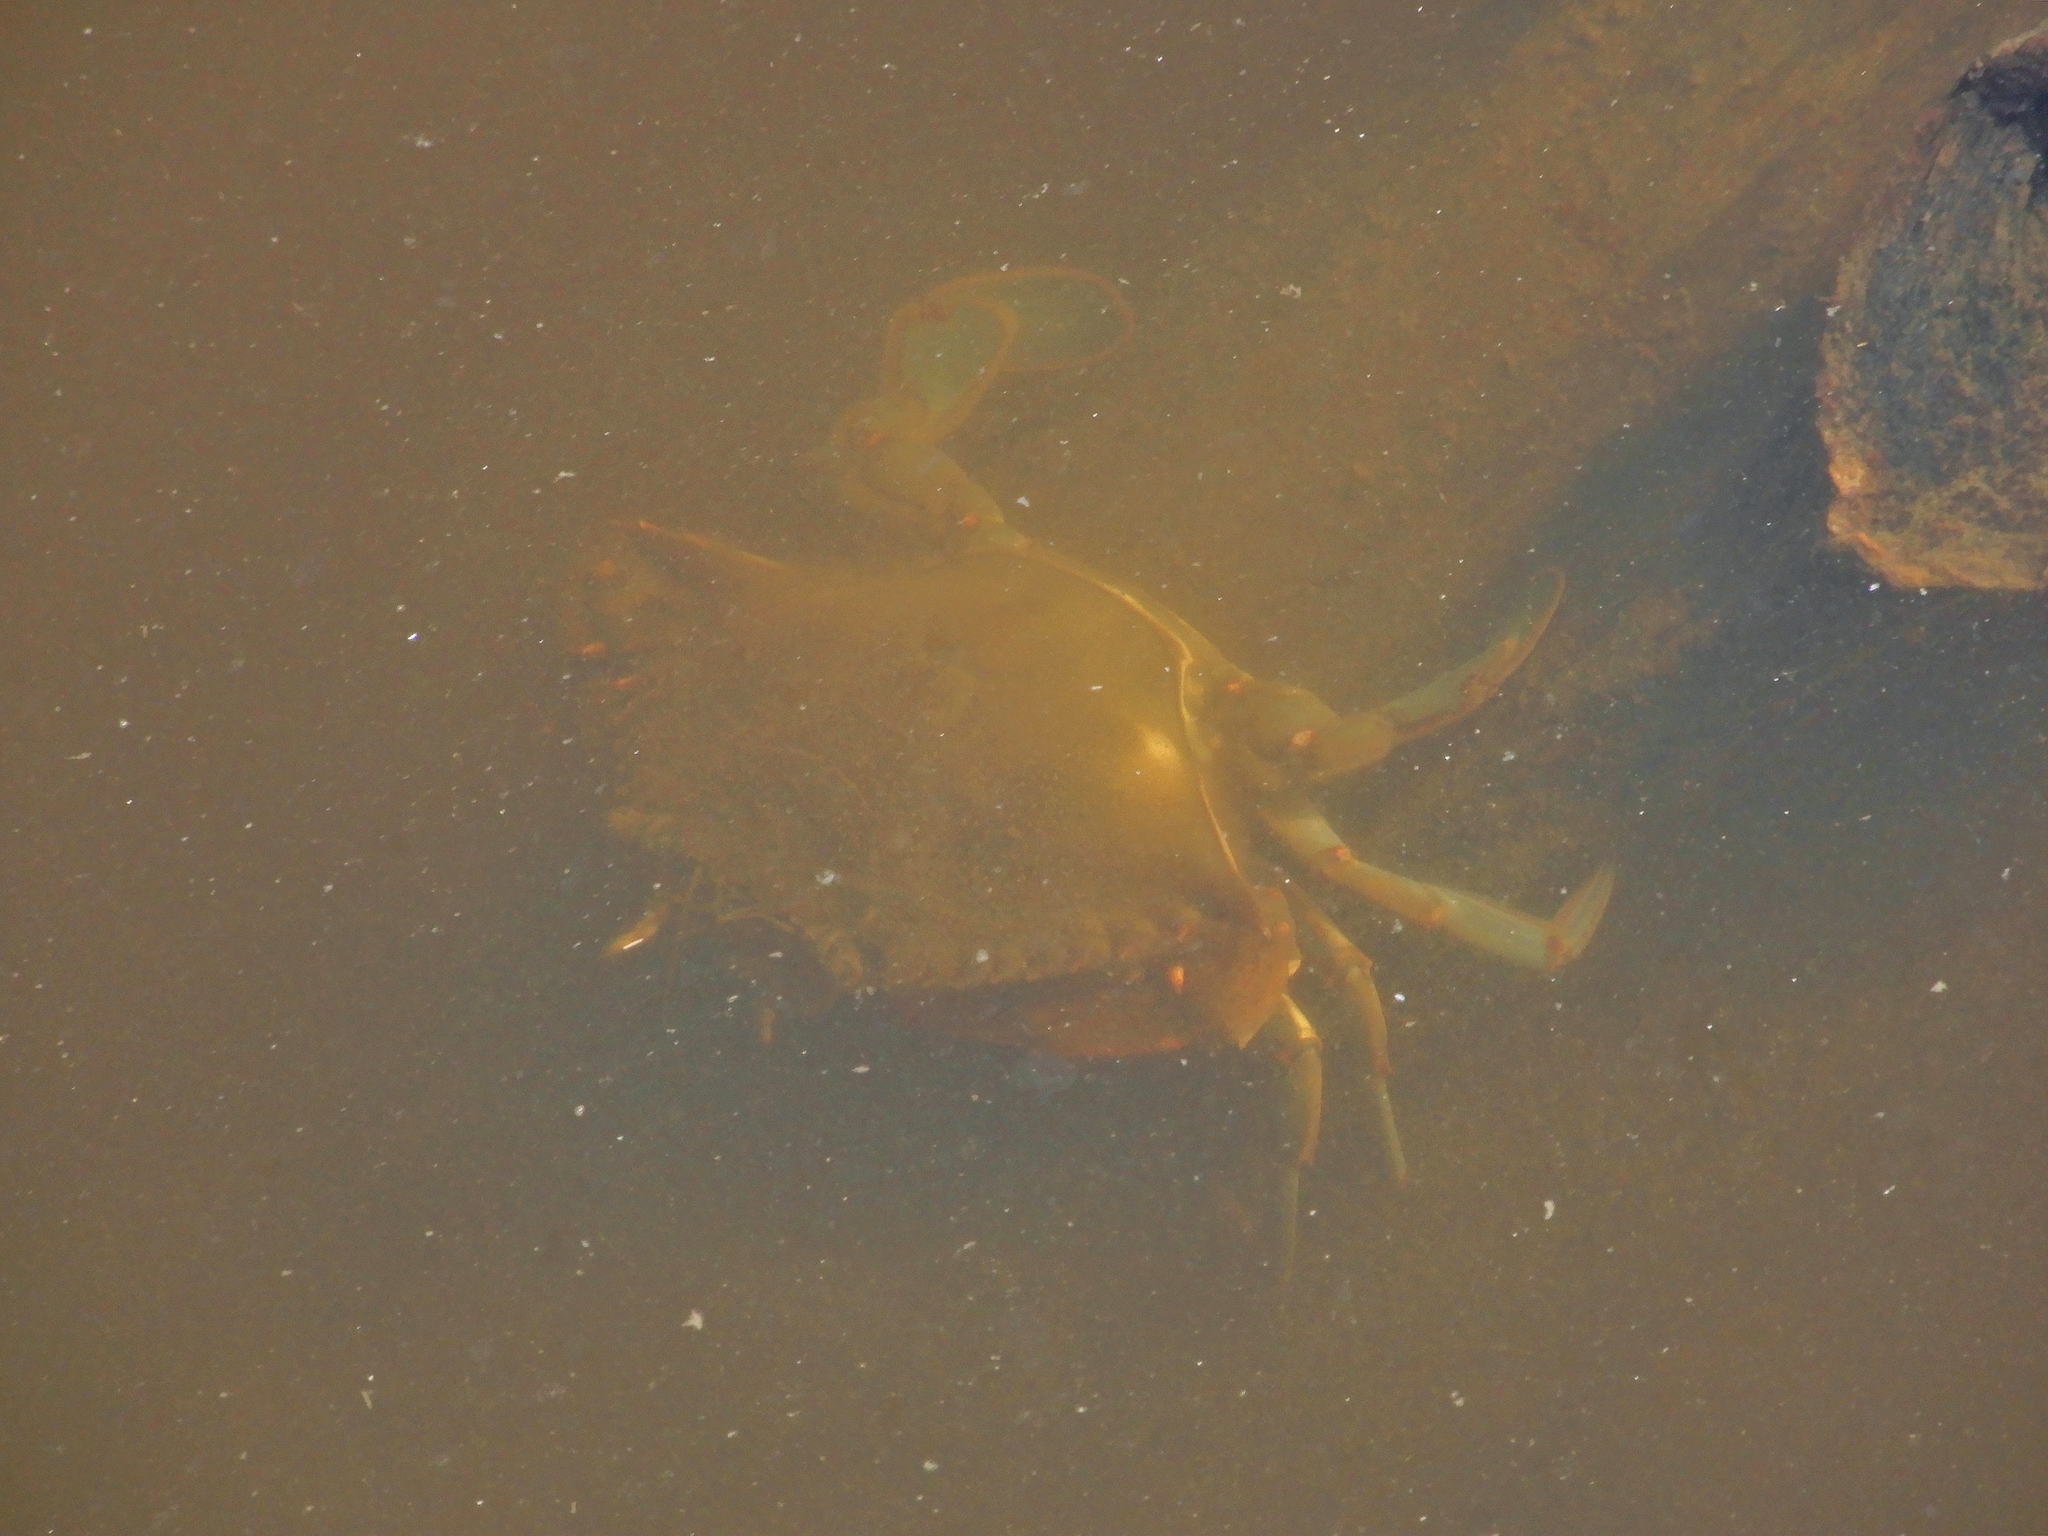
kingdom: Animalia
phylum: Arthropoda
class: Malacostraca
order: Decapoda
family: Portunidae
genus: Callinectes
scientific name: Callinectes sapidus
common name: Blue crab
